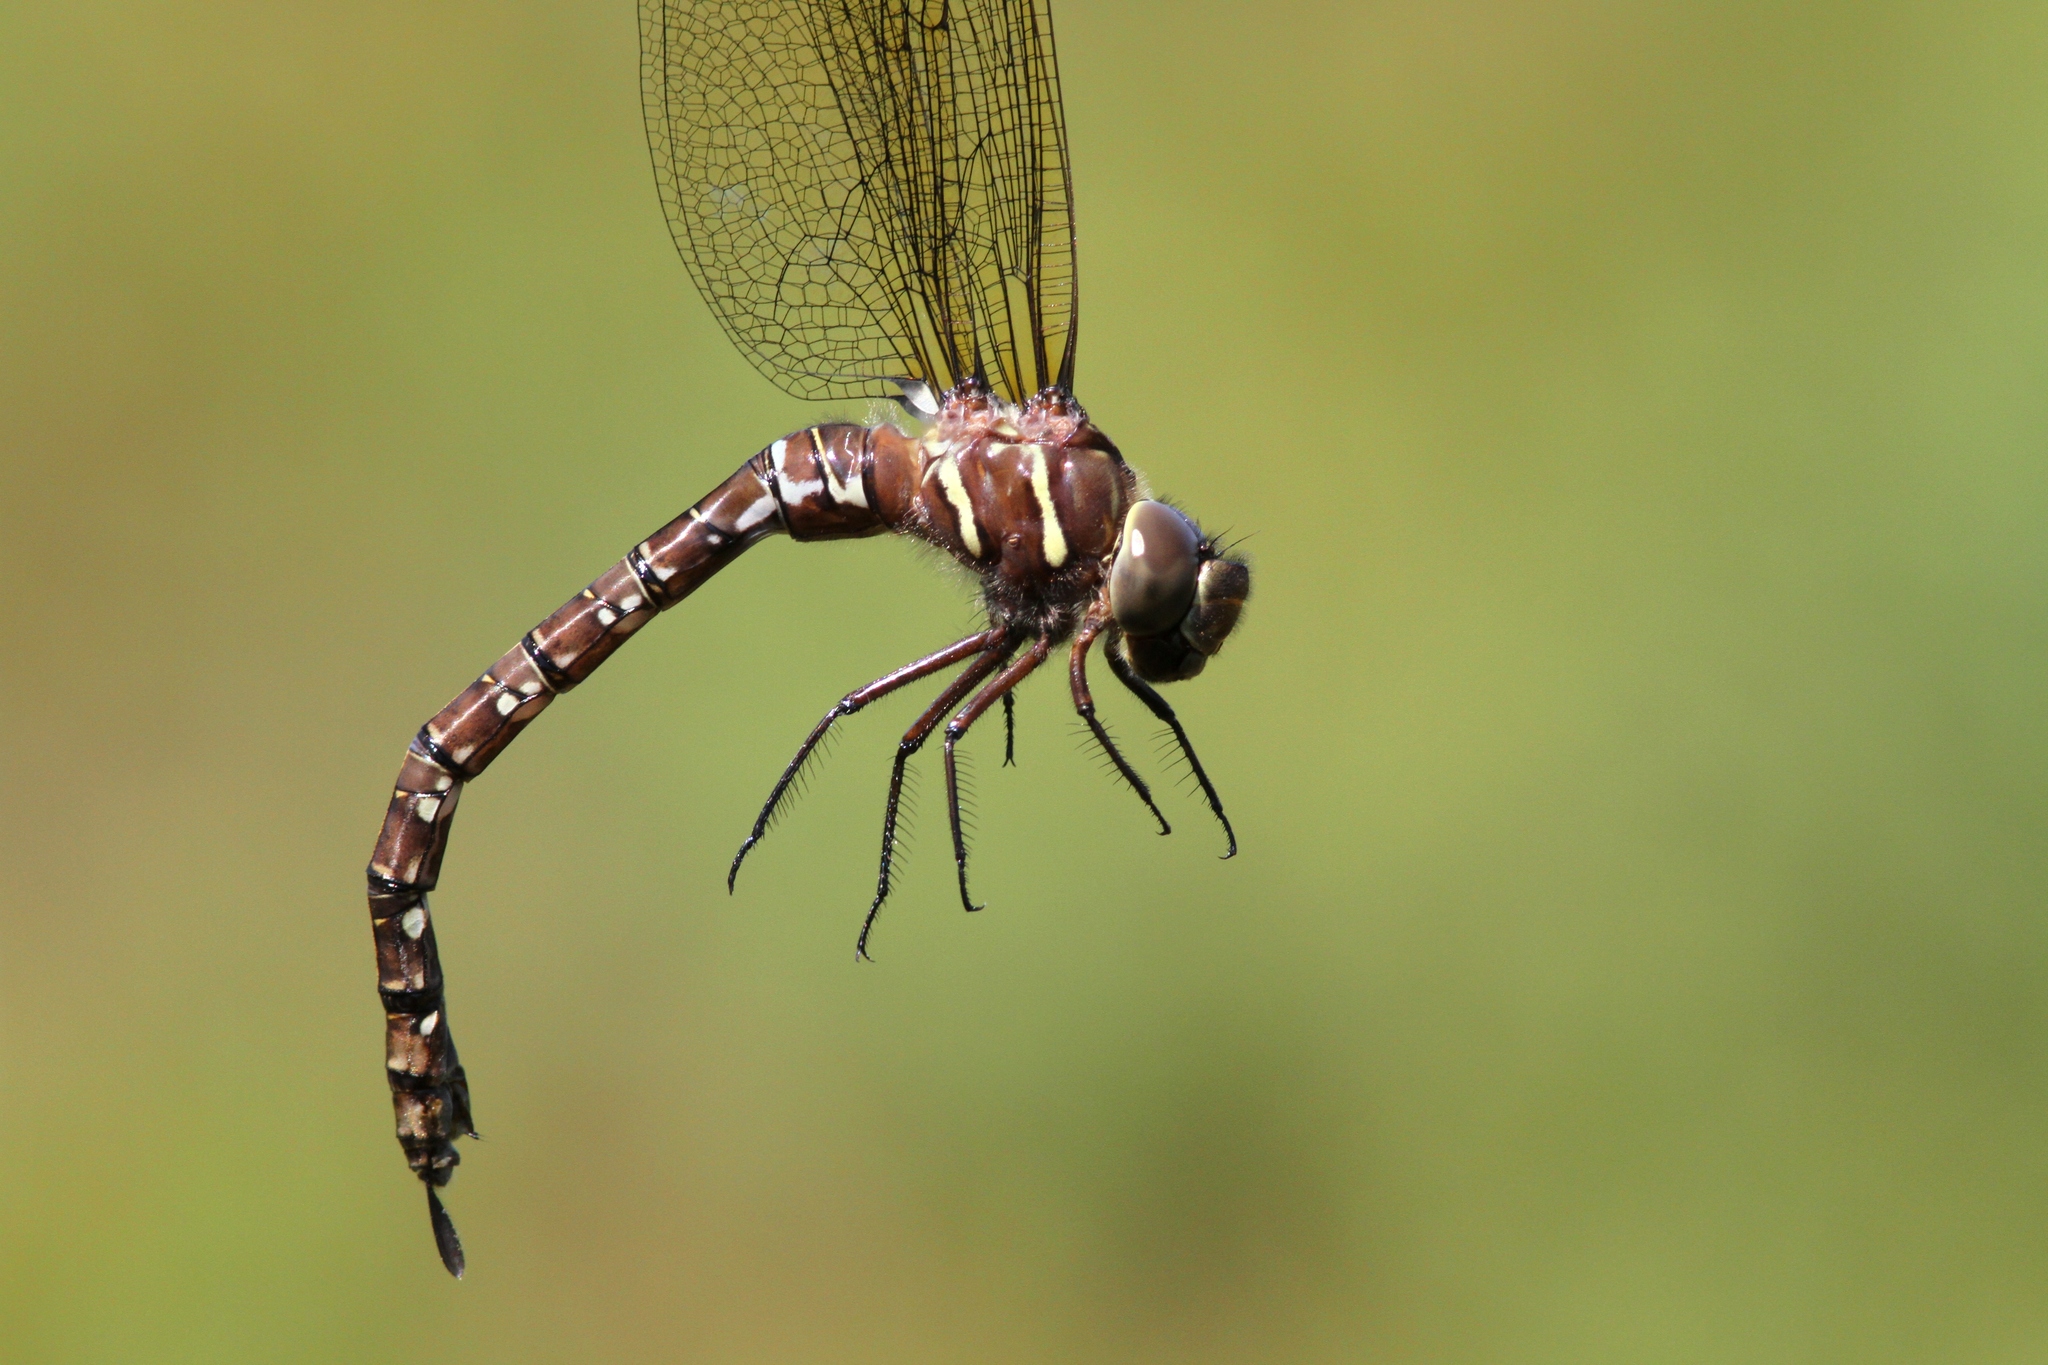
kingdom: Animalia
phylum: Arthropoda
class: Insecta
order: Odonata
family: Aeshnidae
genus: Aeshna
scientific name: Aeshna umbrosa
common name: Shadow darner
